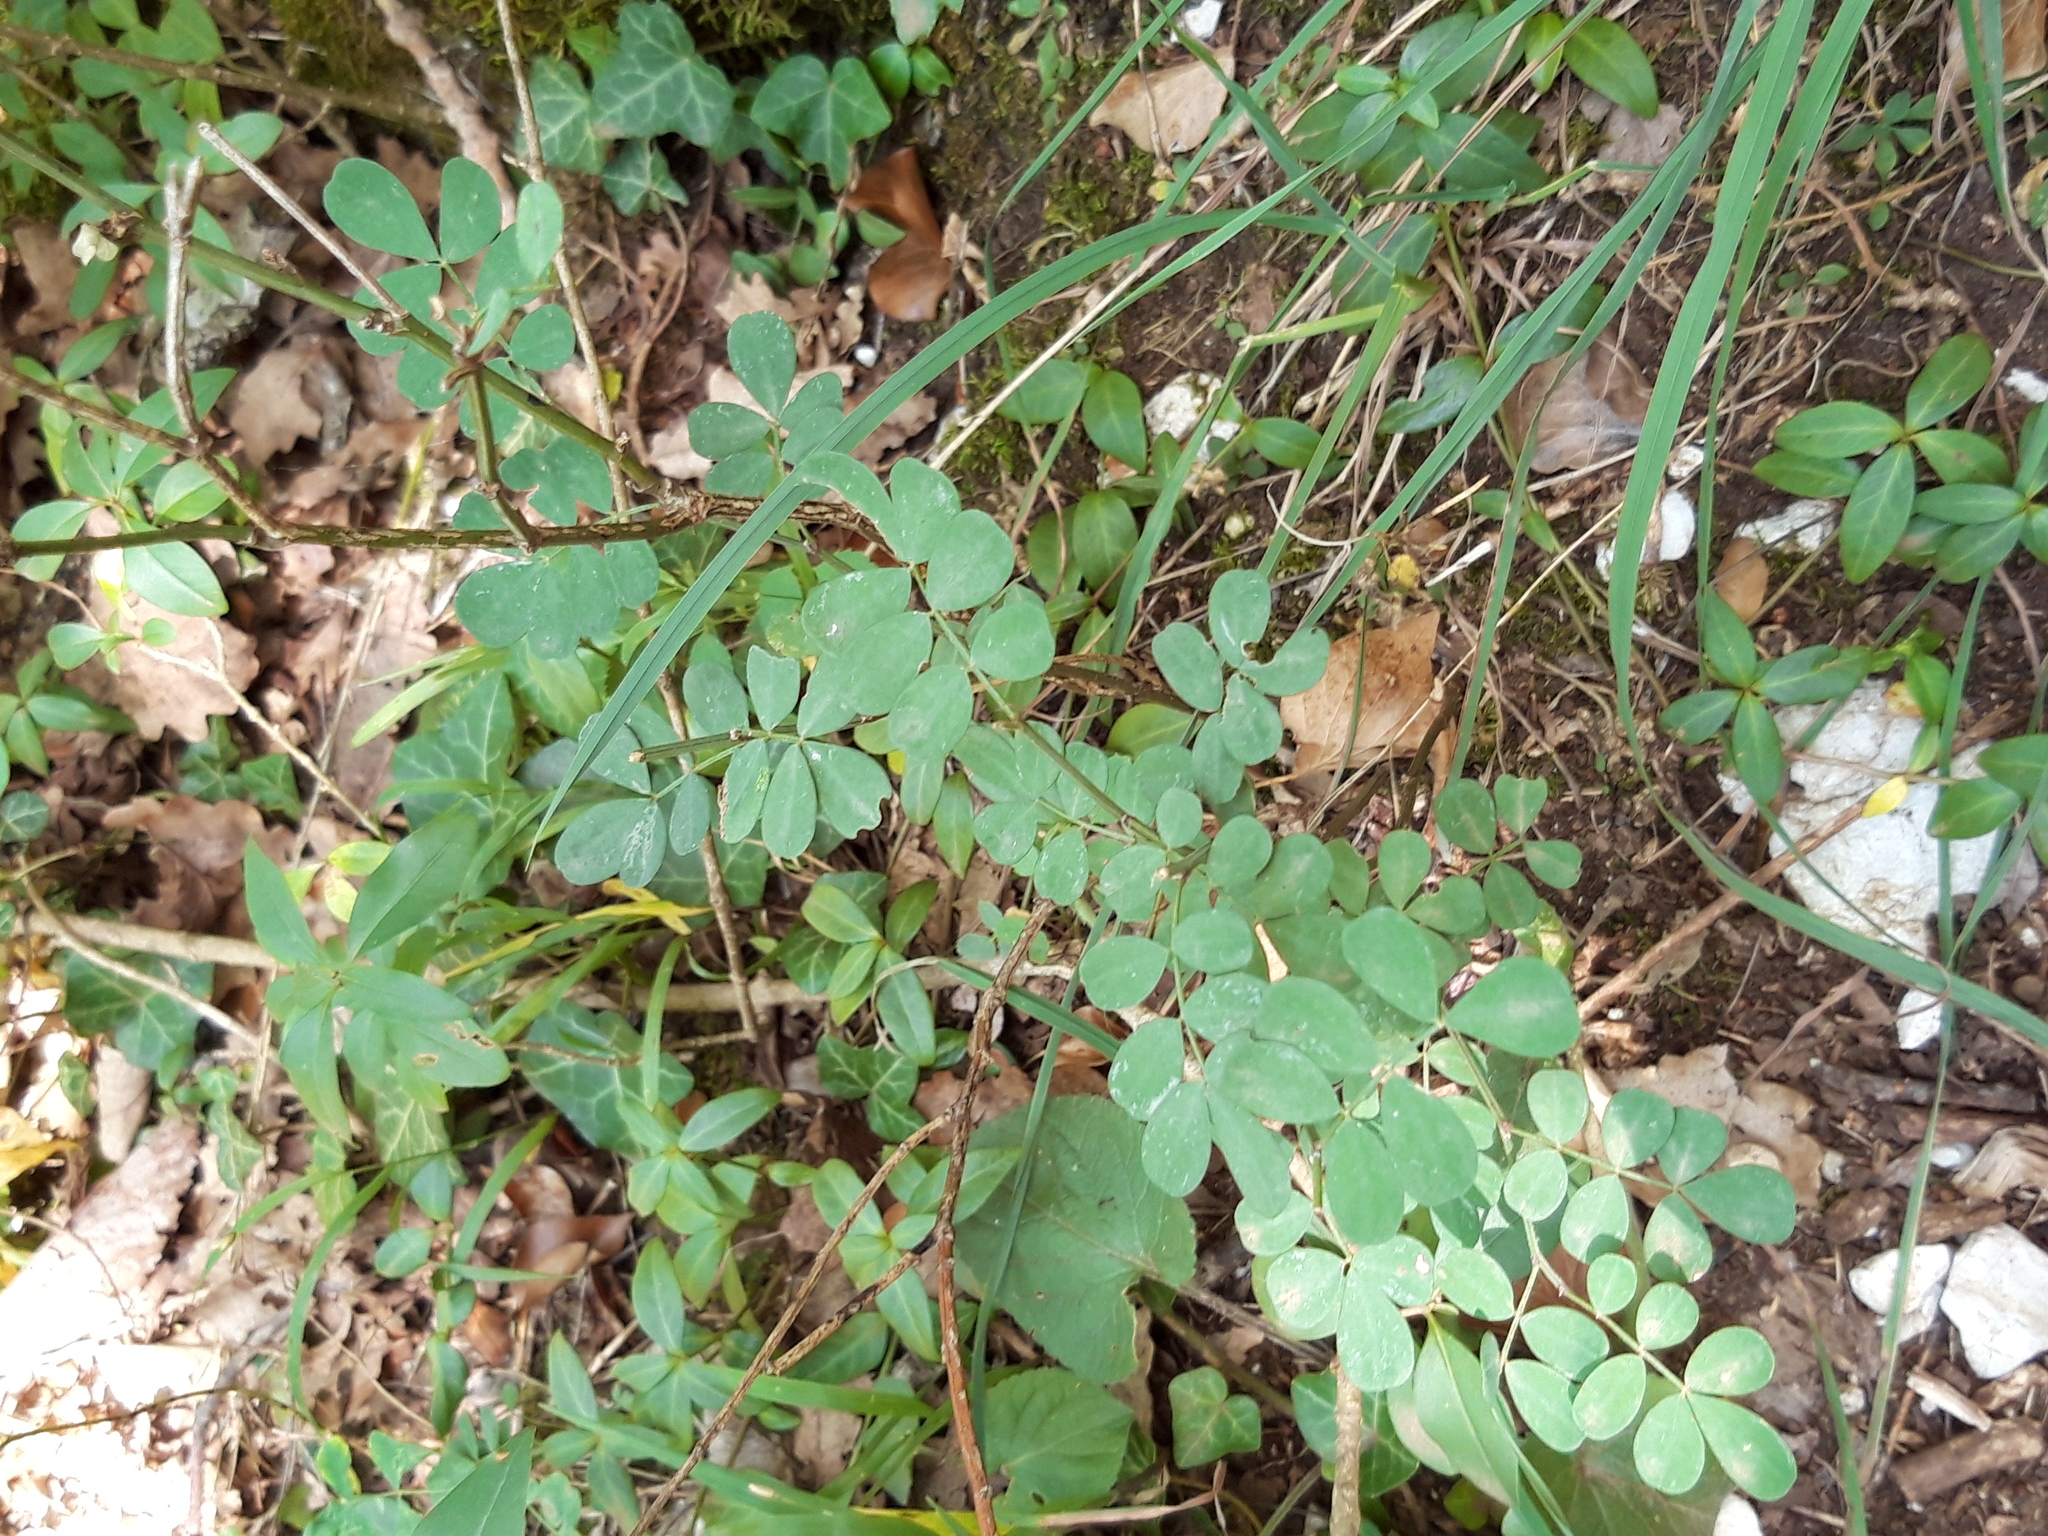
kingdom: Plantae
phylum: Tracheophyta
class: Magnoliopsida
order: Fabales
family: Fabaceae
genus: Hippocrepis
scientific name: Hippocrepis emerus
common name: Scorpion senna
